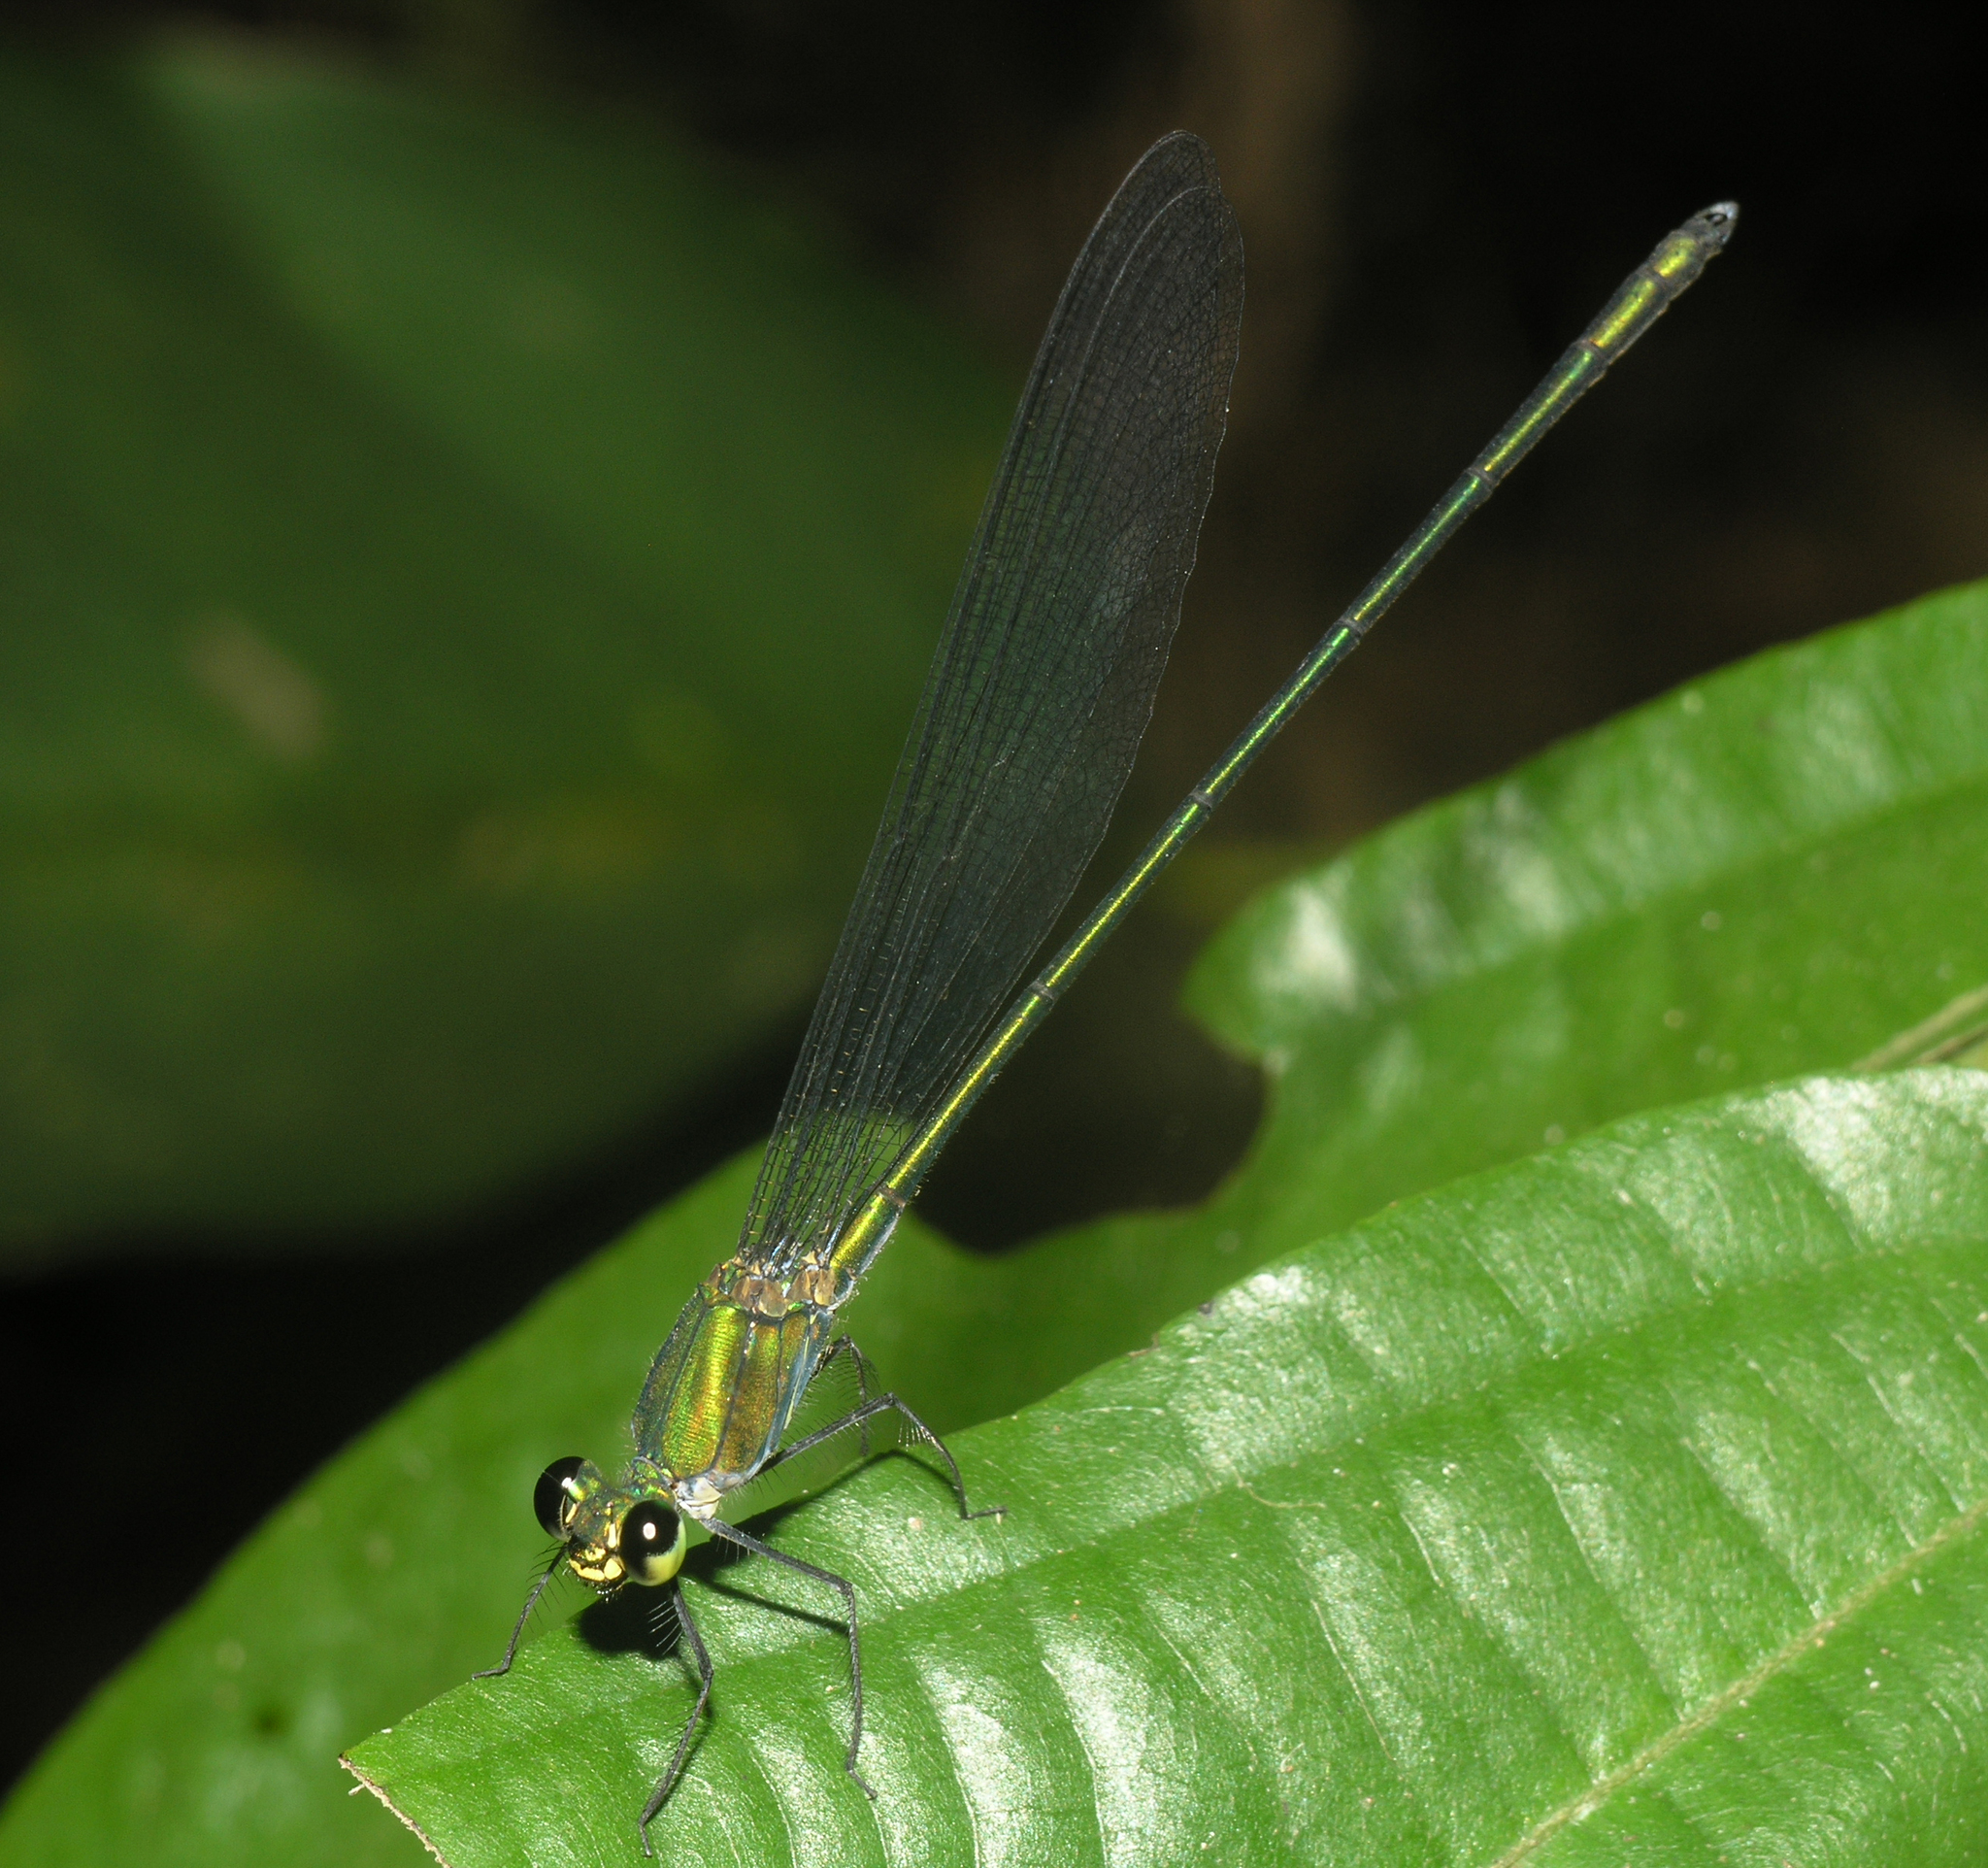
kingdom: Animalia
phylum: Arthropoda
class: Insecta
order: Odonata
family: Calopterygidae
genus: Vestalis
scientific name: Vestalis anne
